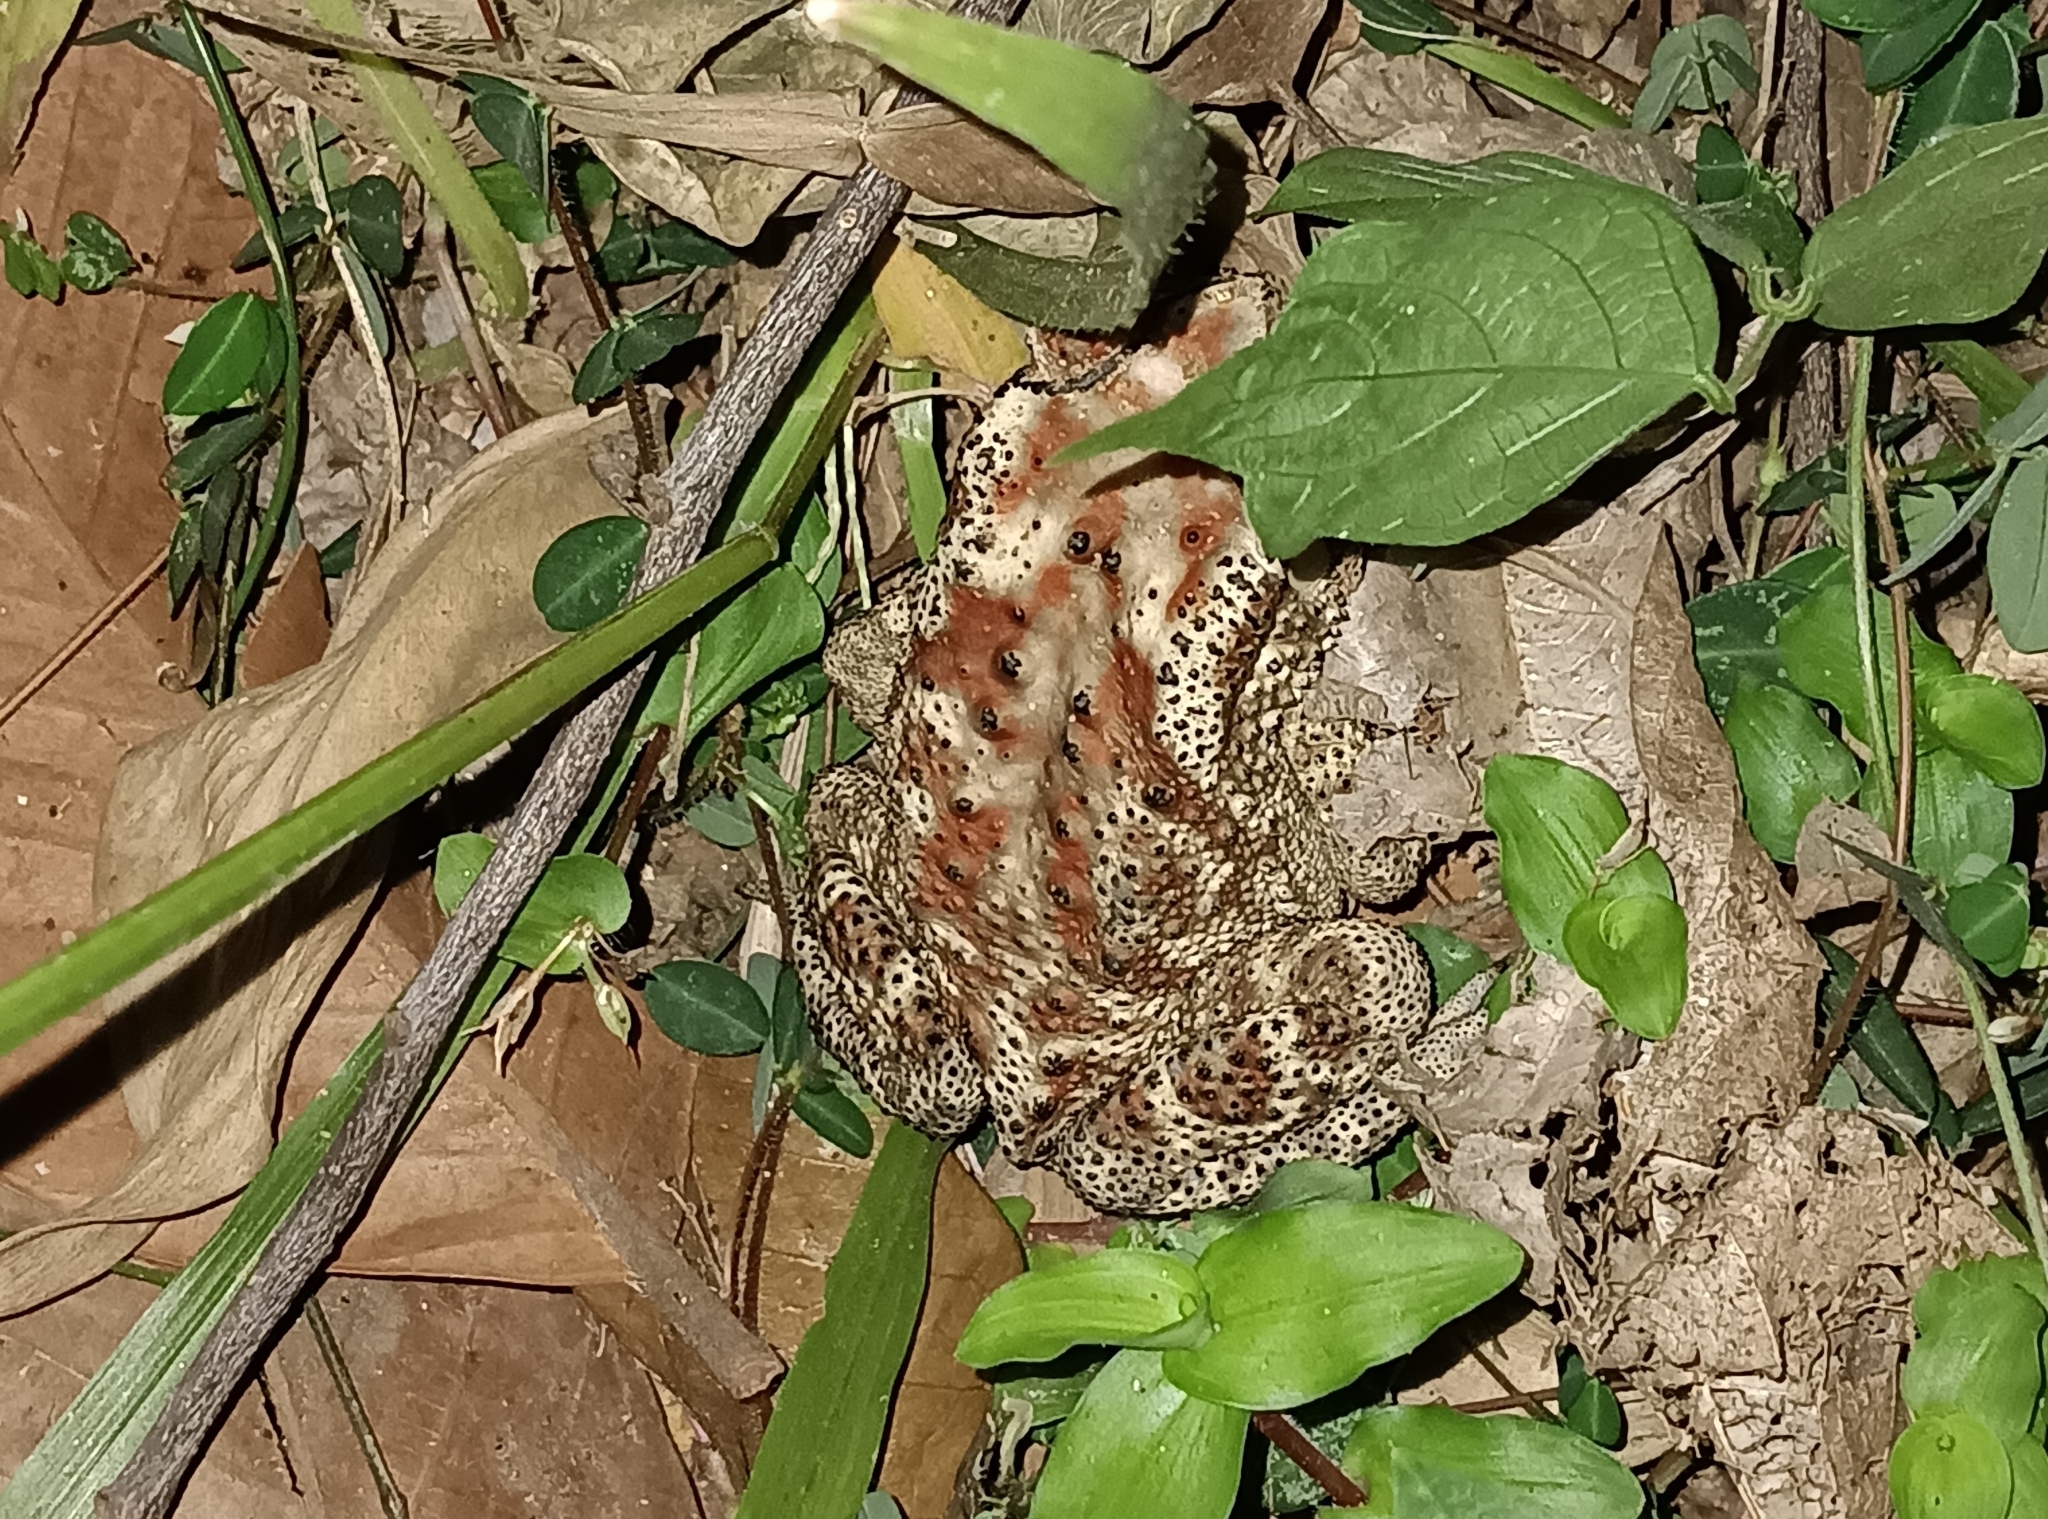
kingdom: Animalia
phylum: Chordata
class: Amphibia
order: Anura
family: Bufonidae
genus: Duttaphrynus
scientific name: Duttaphrynus melanostictus
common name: Common sunda toad
